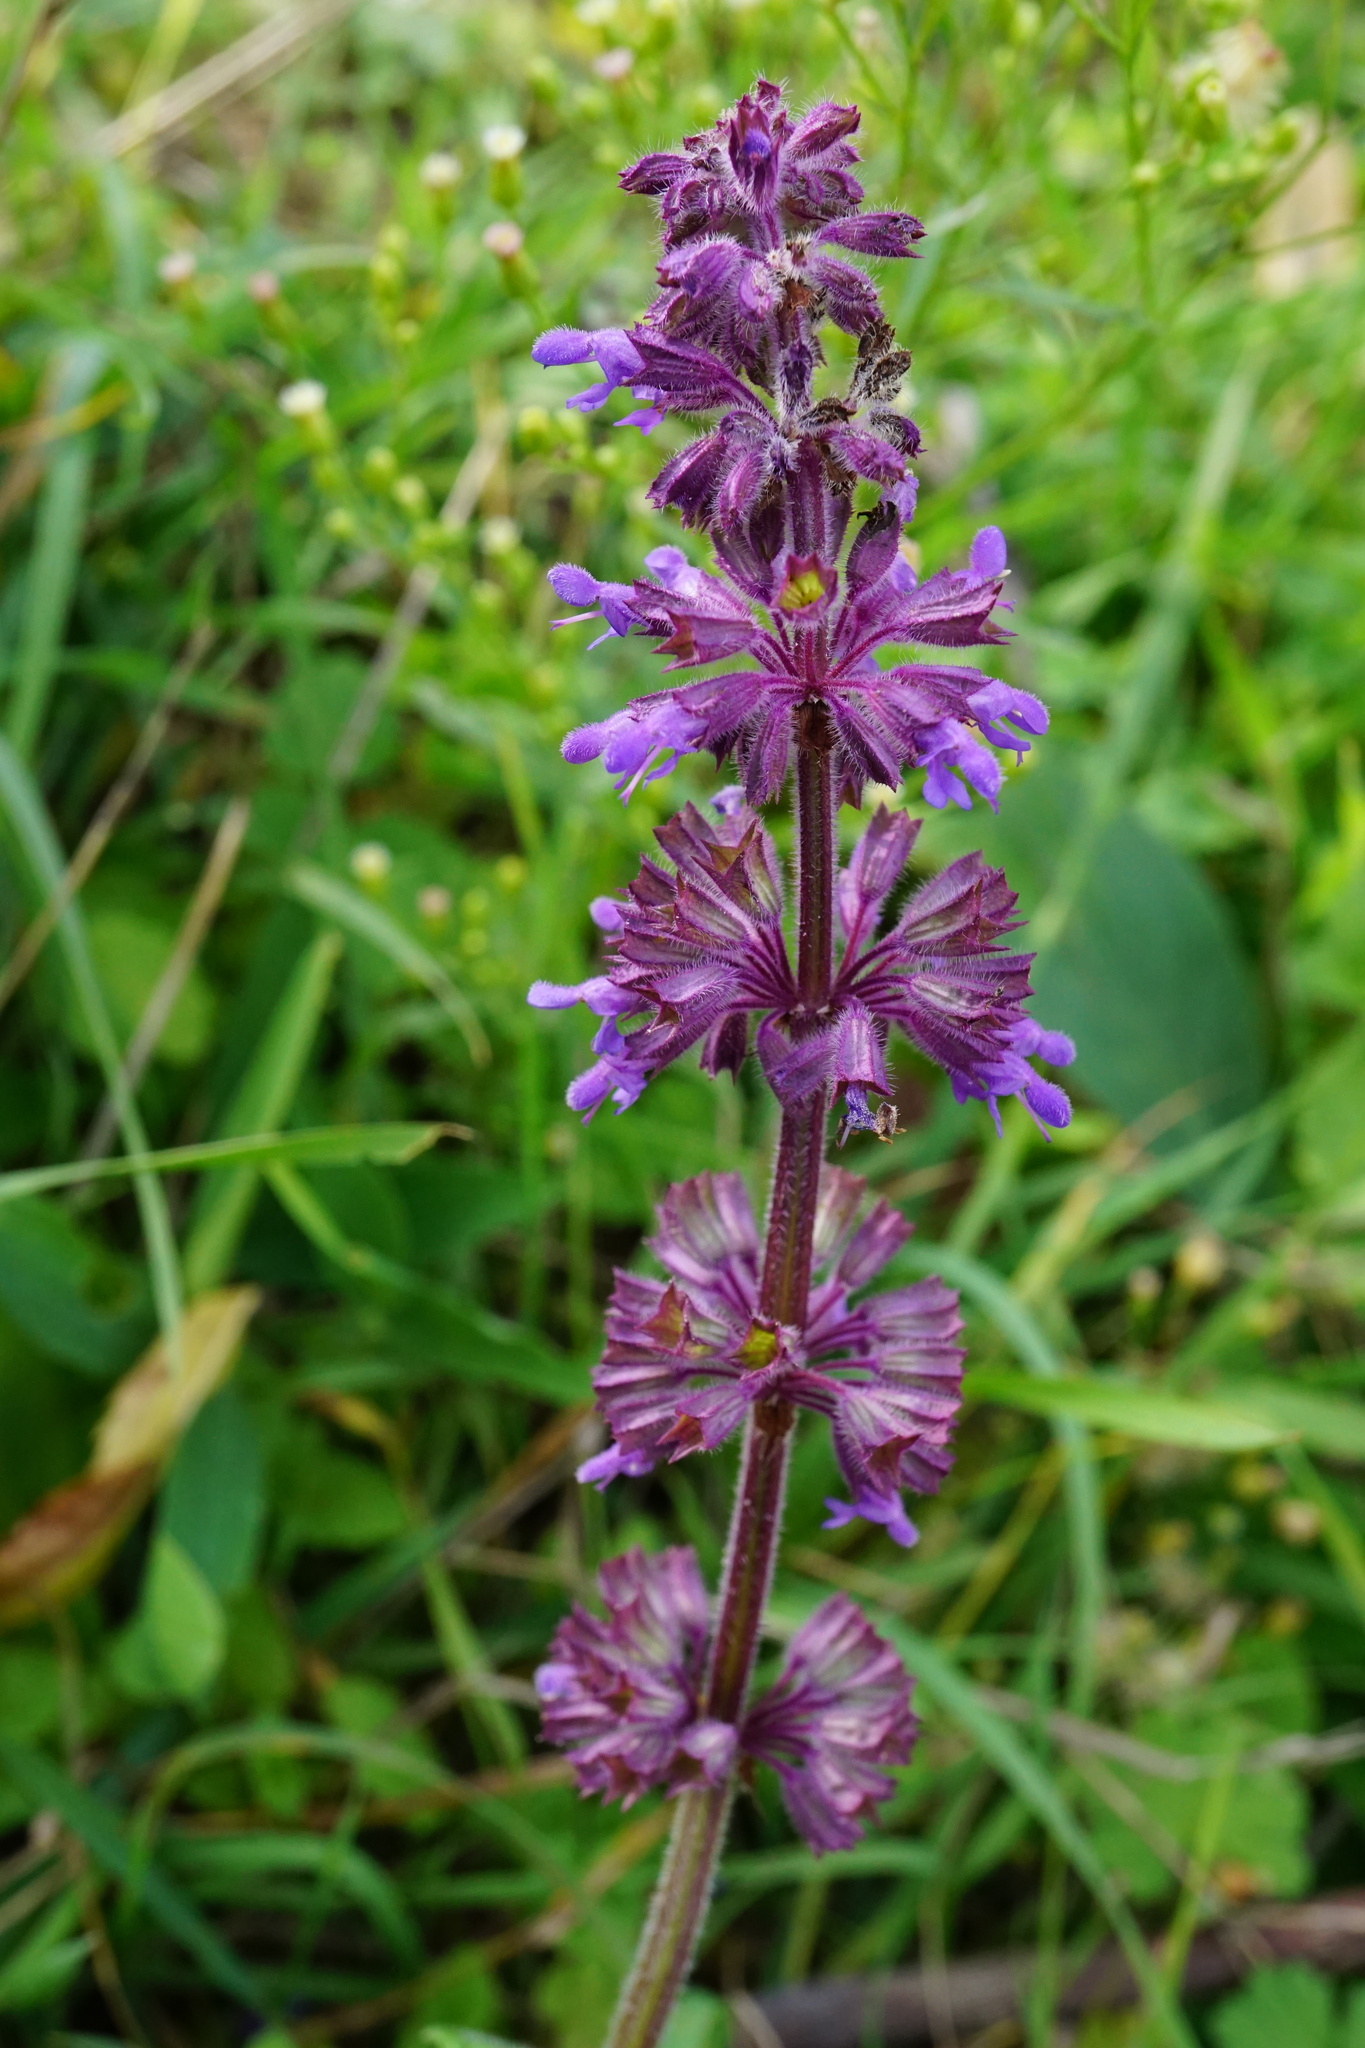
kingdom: Plantae
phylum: Tracheophyta
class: Magnoliopsida
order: Lamiales
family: Lamiaceae
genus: Salvia
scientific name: Salvia verticillata
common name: Whorled clary
